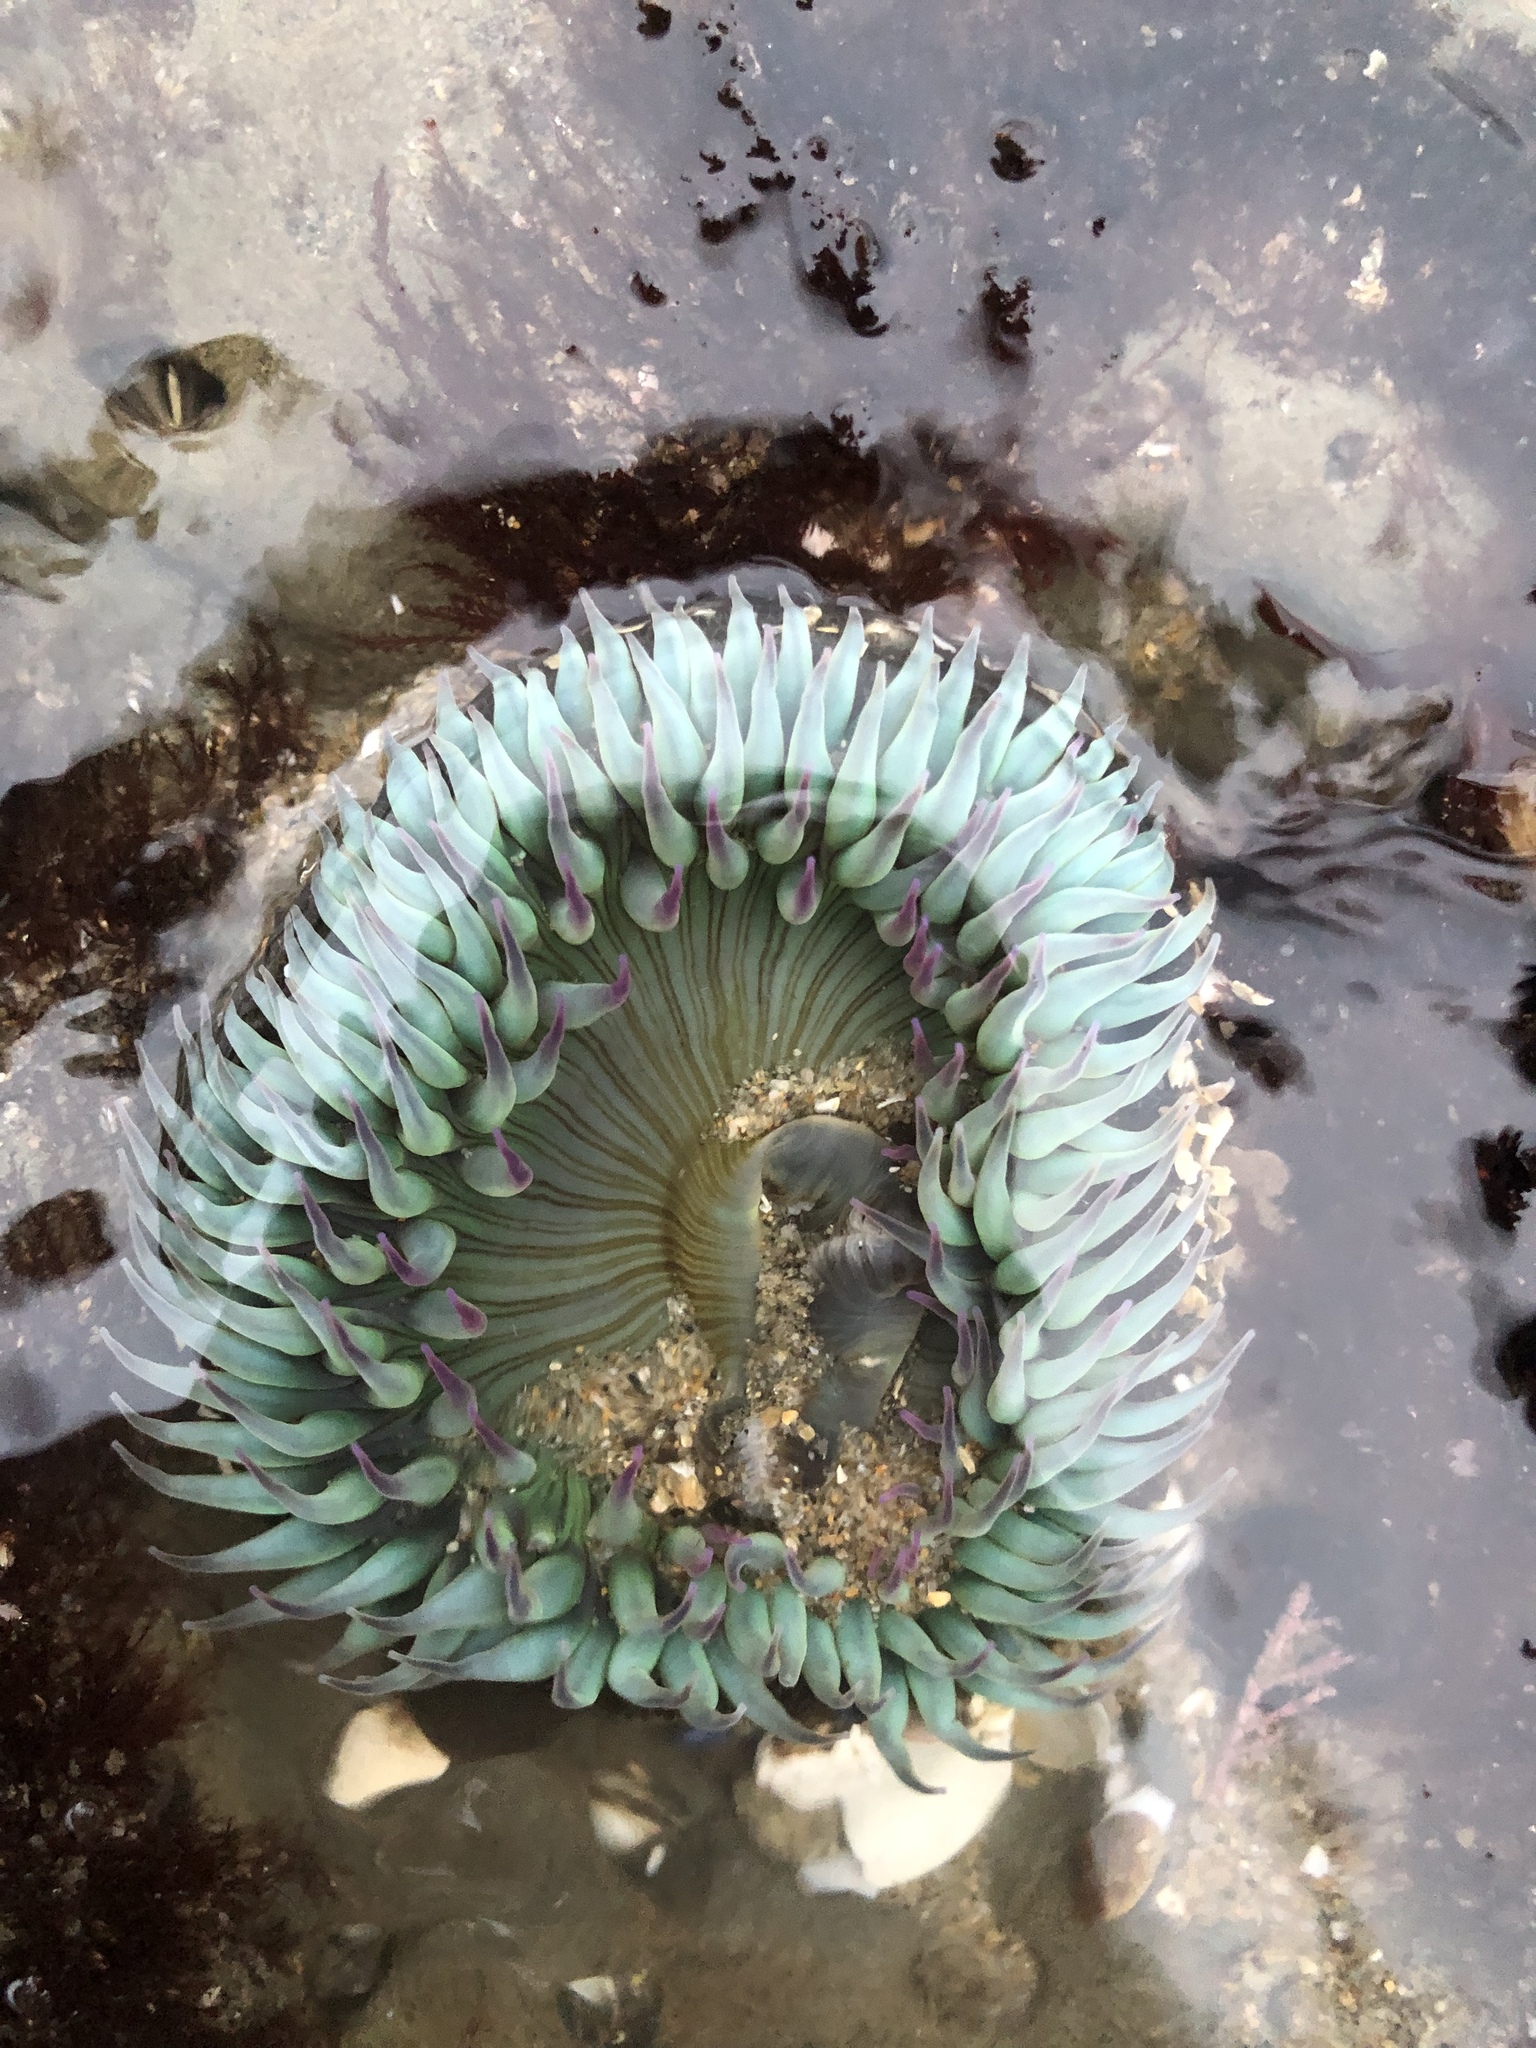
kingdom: Animalia
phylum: Cnidaria
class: Anthozoa
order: Actiniaria
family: Actiniidae
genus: Anthopleura
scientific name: Anthopleura sola
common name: Sun anemone
